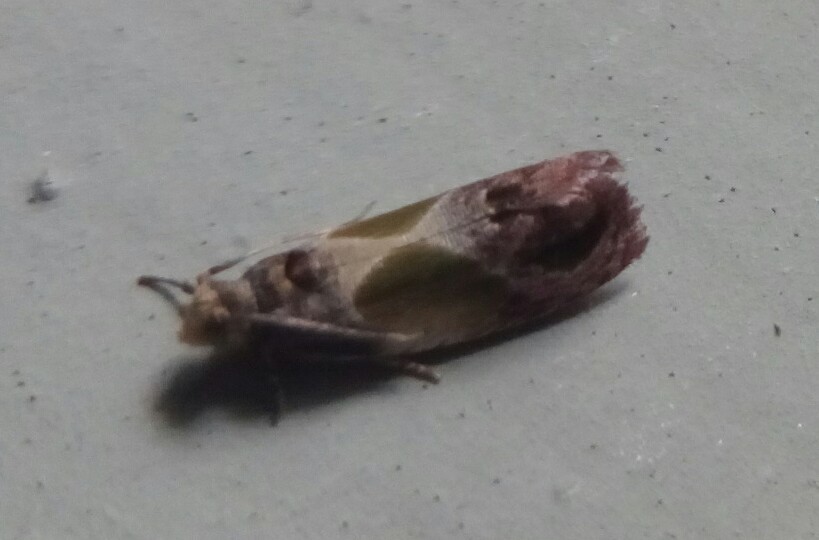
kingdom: Animalia
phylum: Arthropoda
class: Insecta
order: Lepidoptera
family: Tortricidae
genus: Eumarozia
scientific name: Eumarozia malachitana
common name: Sculptured moth
